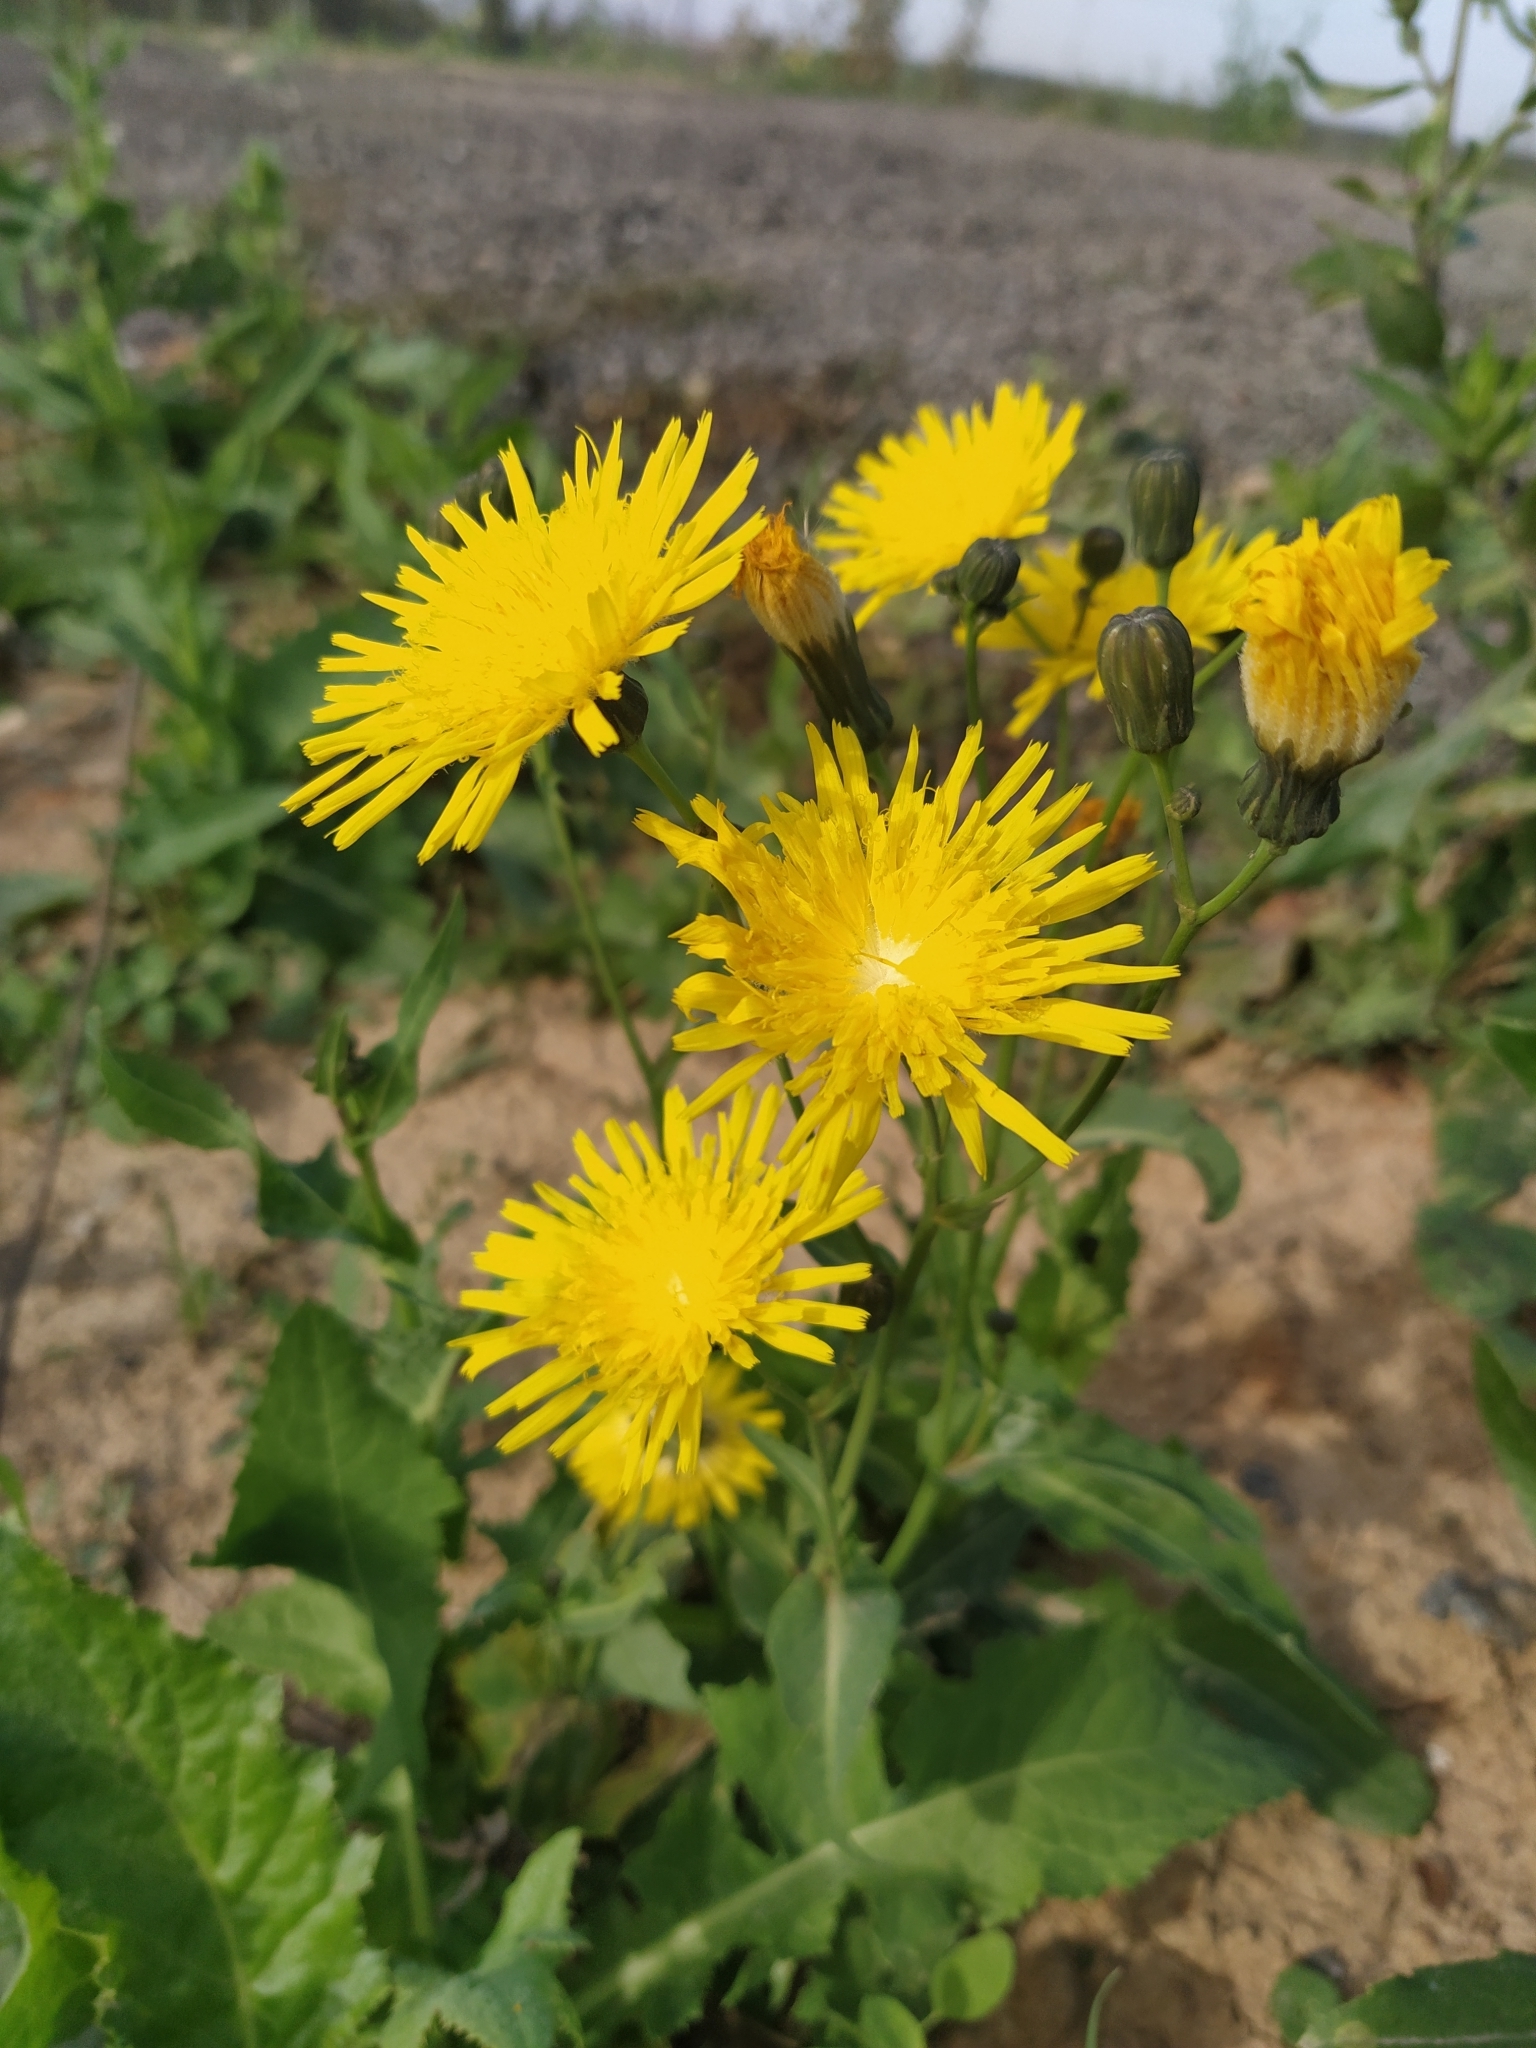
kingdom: Plantae
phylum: Tracheophyta
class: Magnoliopsida
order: Asterales
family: Asteraceae
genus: Sonchus
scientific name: Sonchus arvensis
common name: Perennial sow-thistle
